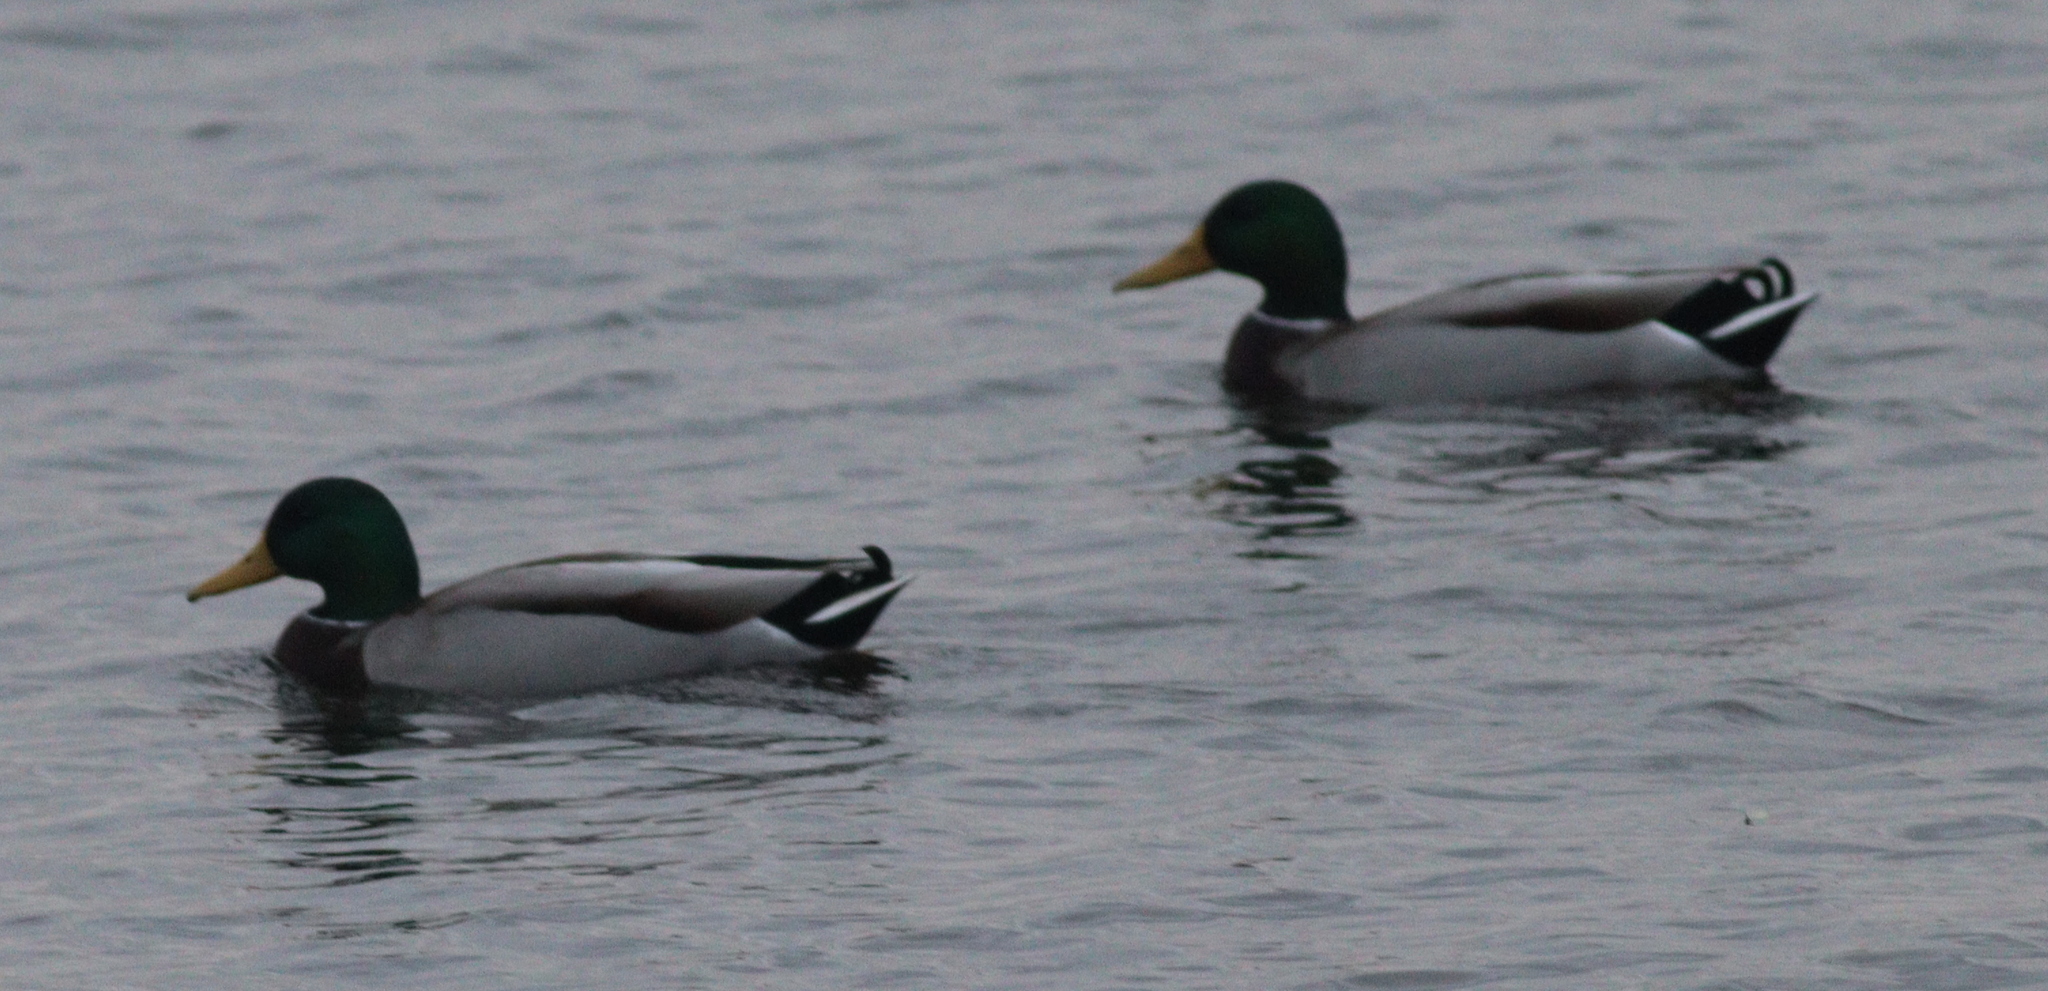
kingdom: Animalia
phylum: Chordata
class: Aves
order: Anseriformes
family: Anatidae
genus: Anas
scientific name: Anas platyrhynchos
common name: Mallard
